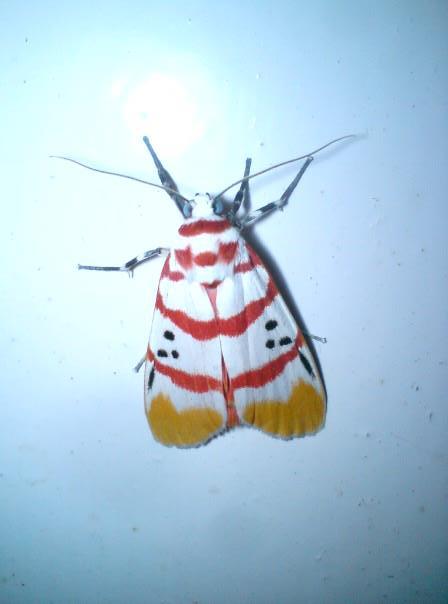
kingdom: Animalia
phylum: Arthropoda
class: Insecta
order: Lepidoptera
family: Erebidae
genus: Cyana
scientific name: Cyana bellissima
